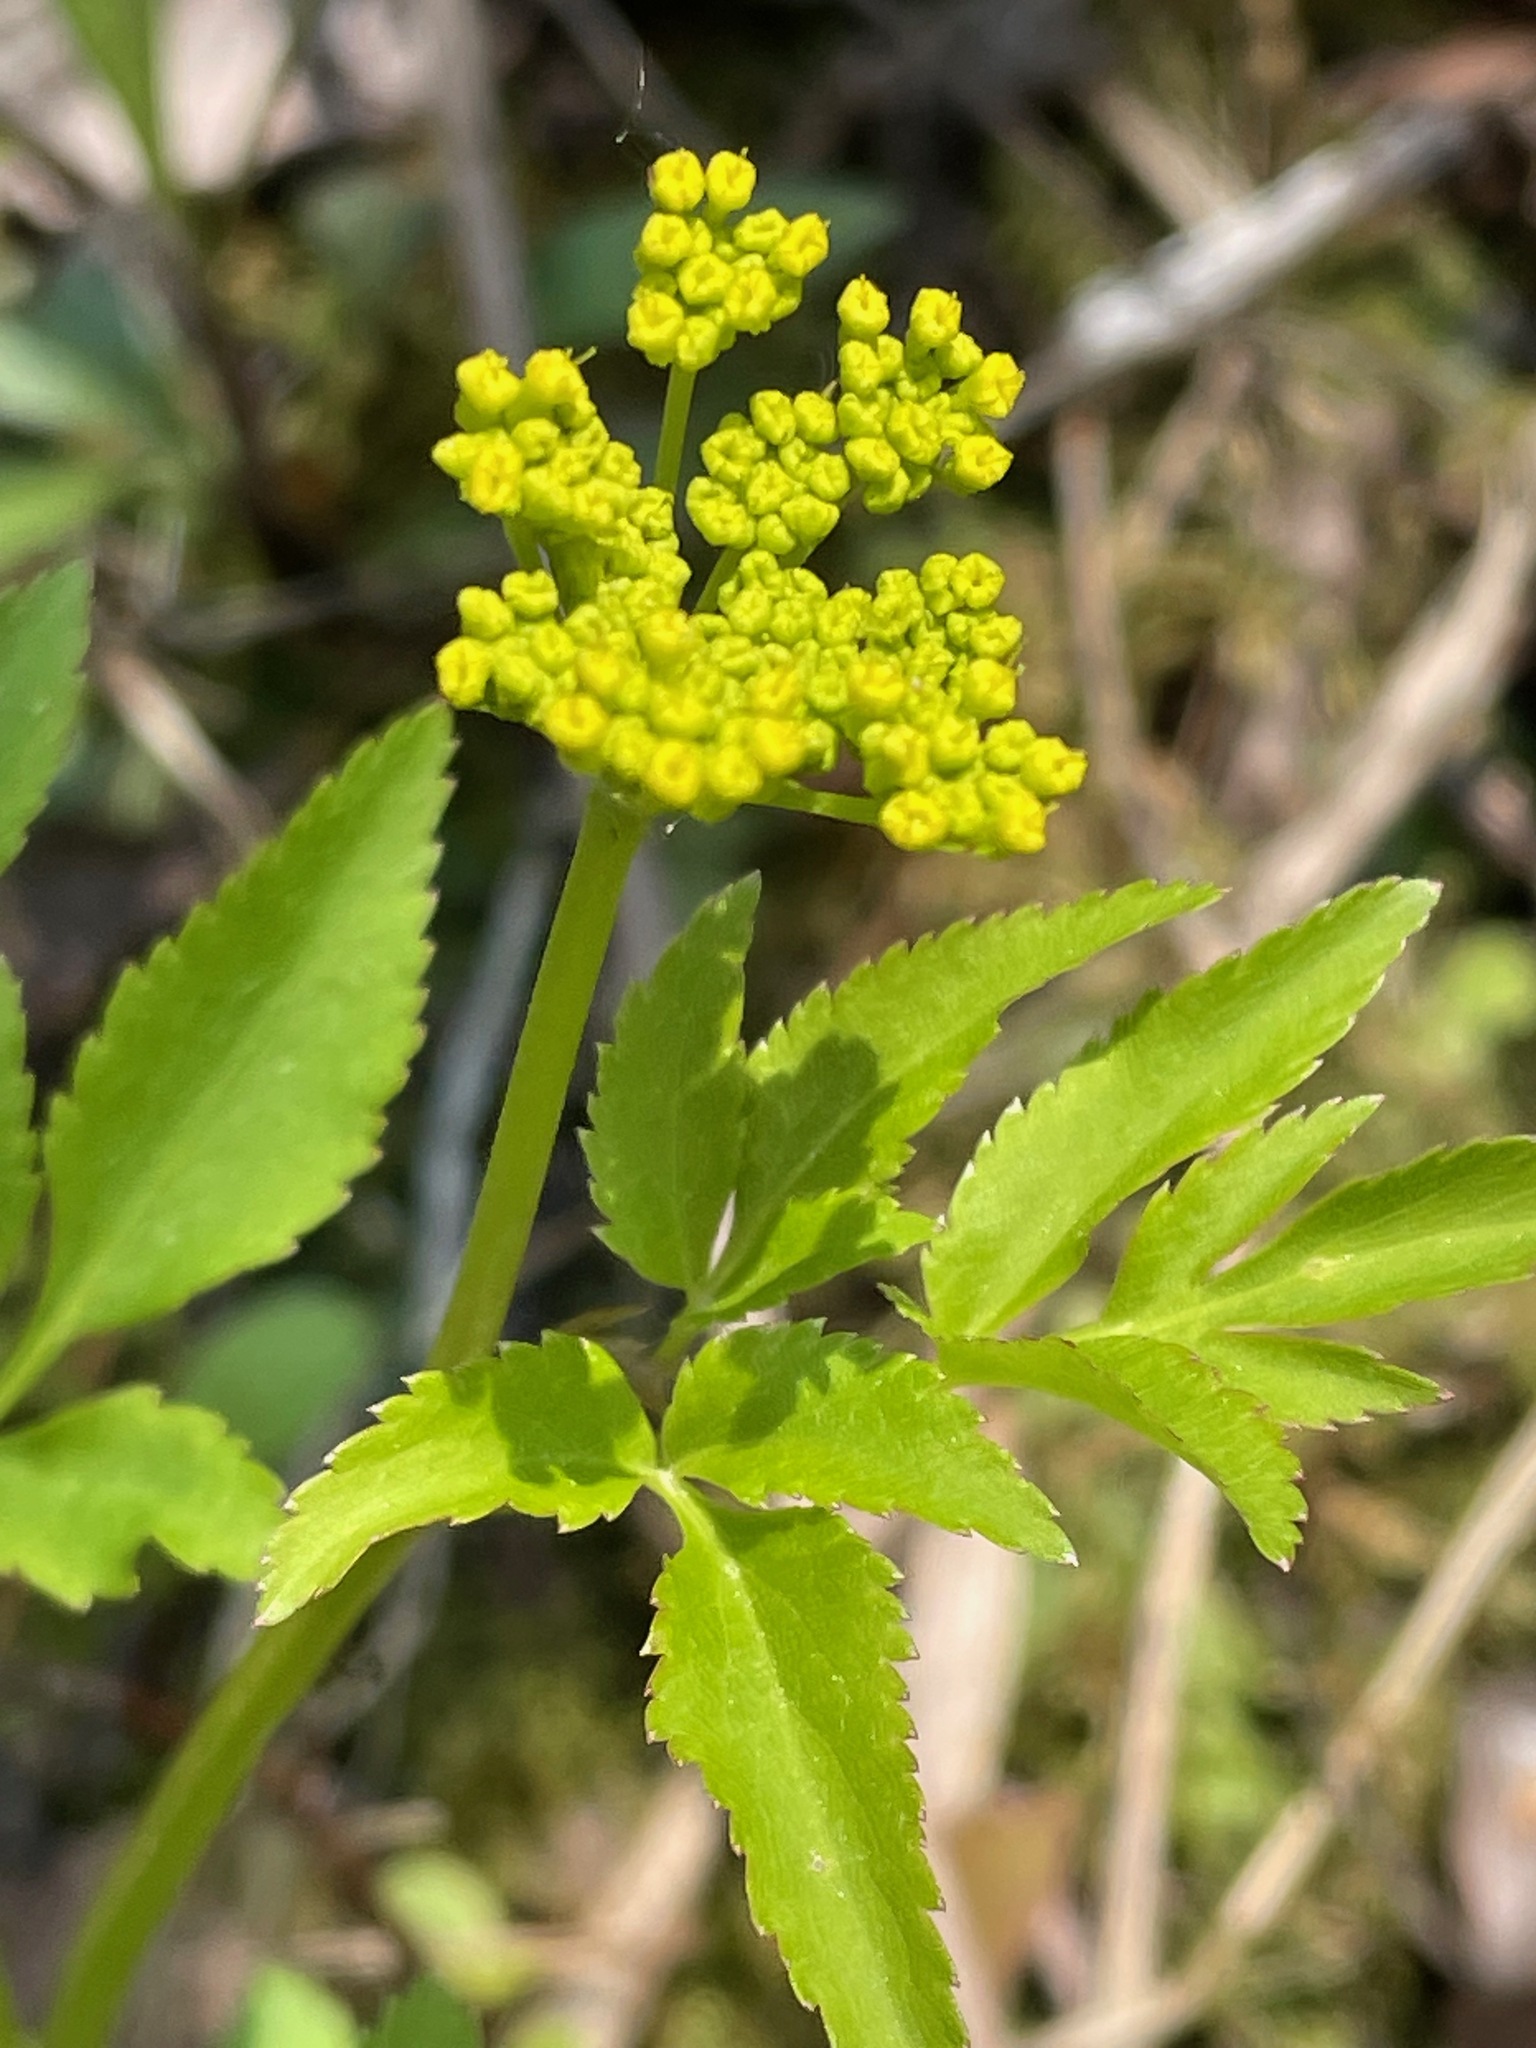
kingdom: Plantae
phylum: Tracheophyta
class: Magnoliopsida
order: Apiales
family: Apiaceae
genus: Zizia
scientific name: Zizia aurea
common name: Golden alexanders
